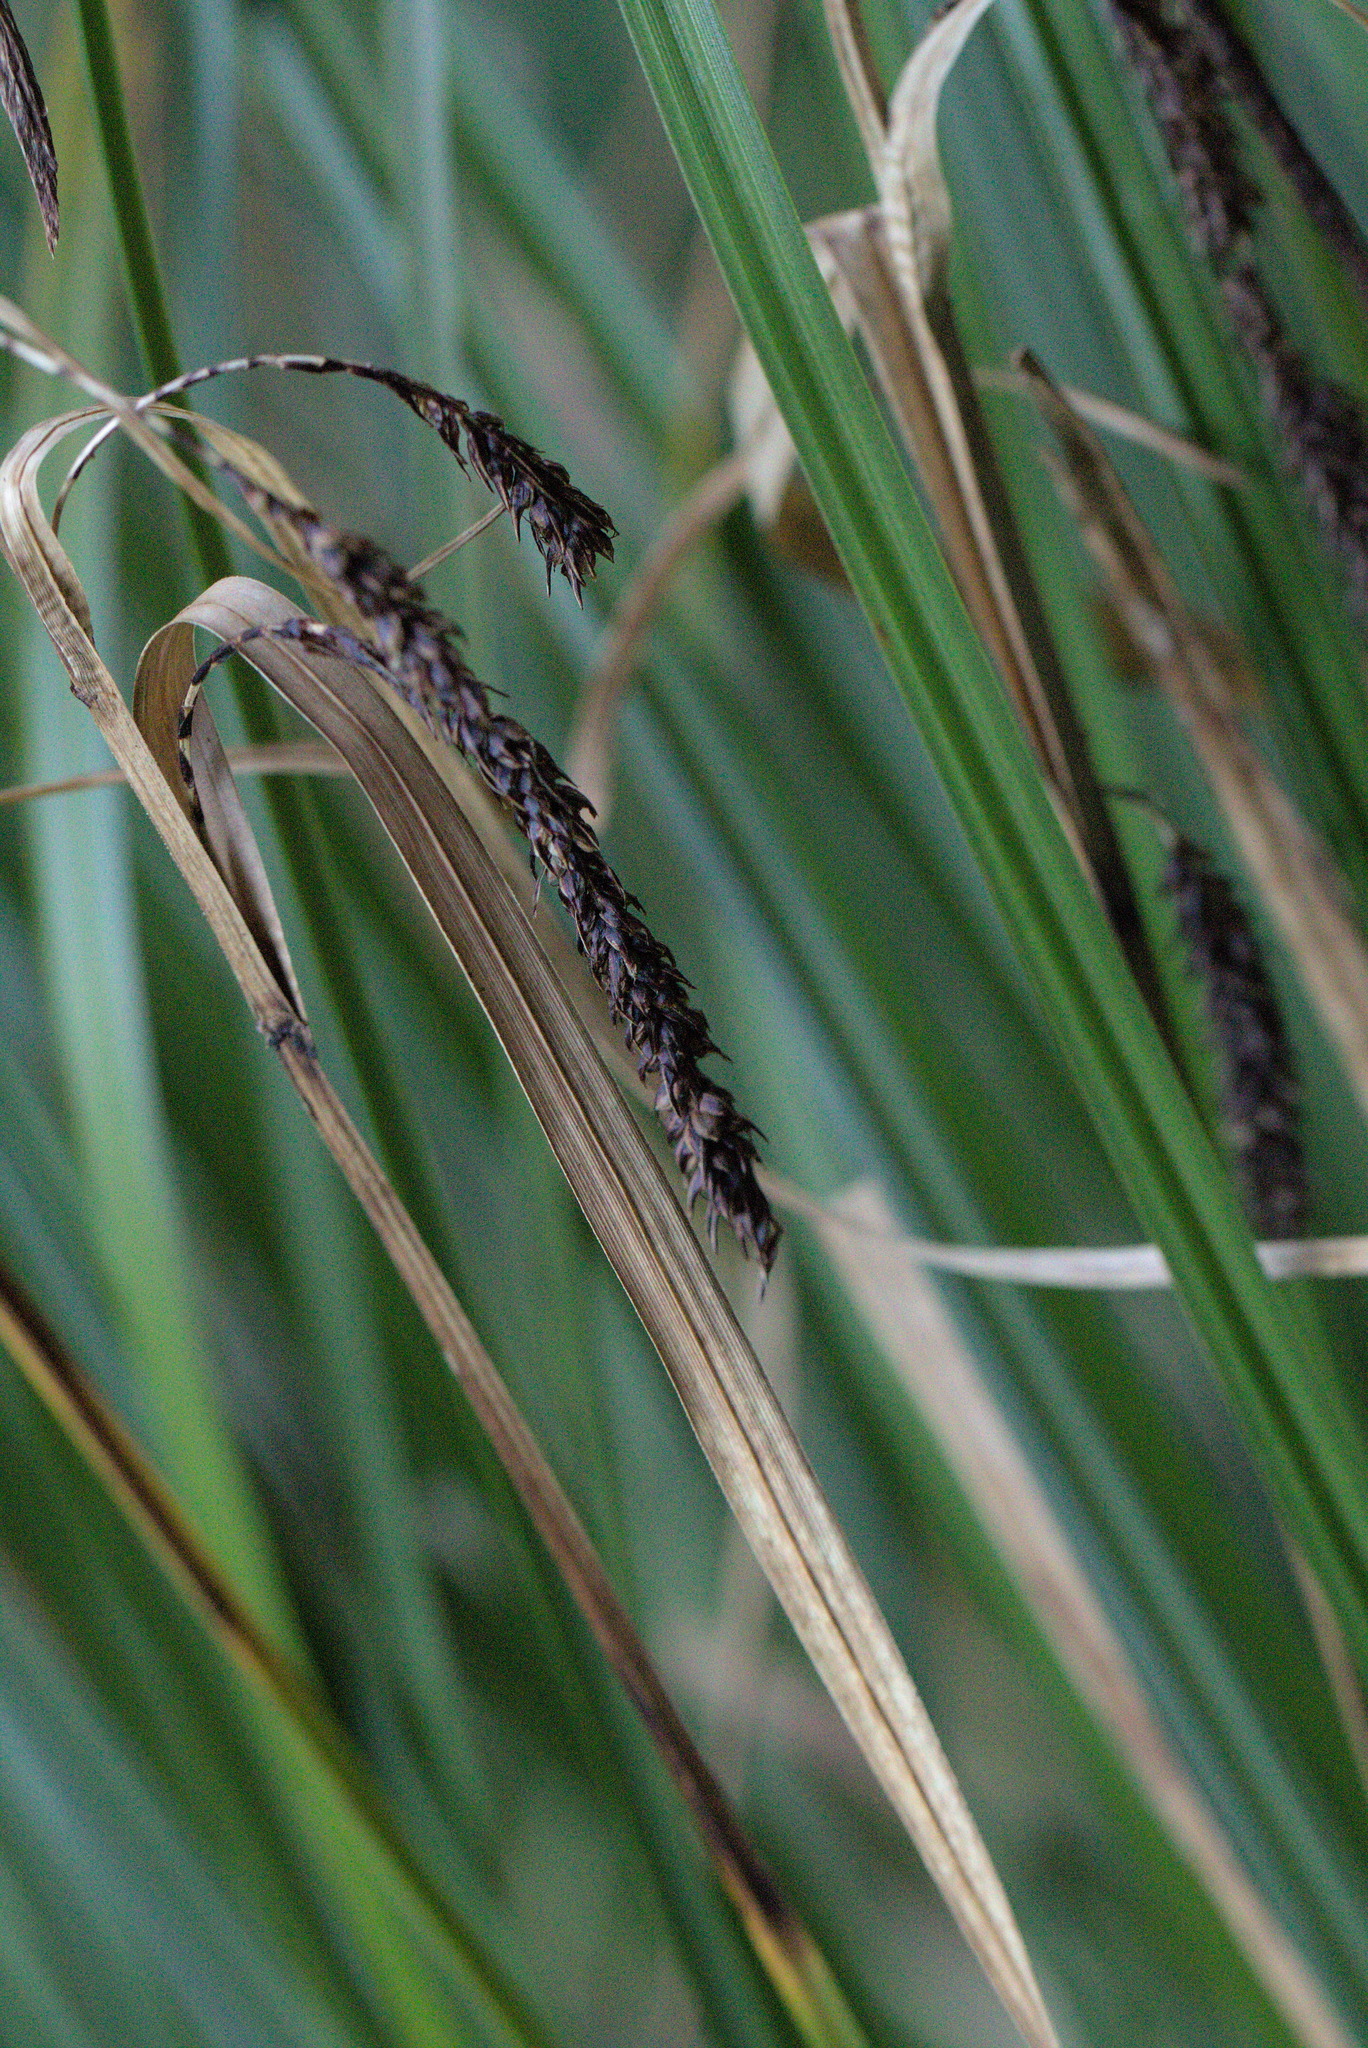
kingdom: Plantae
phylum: Tracheophyta
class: Liliopsida
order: Poales
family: Cyperaceae
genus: Carex
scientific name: Carex obnupta
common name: Slough sedge
